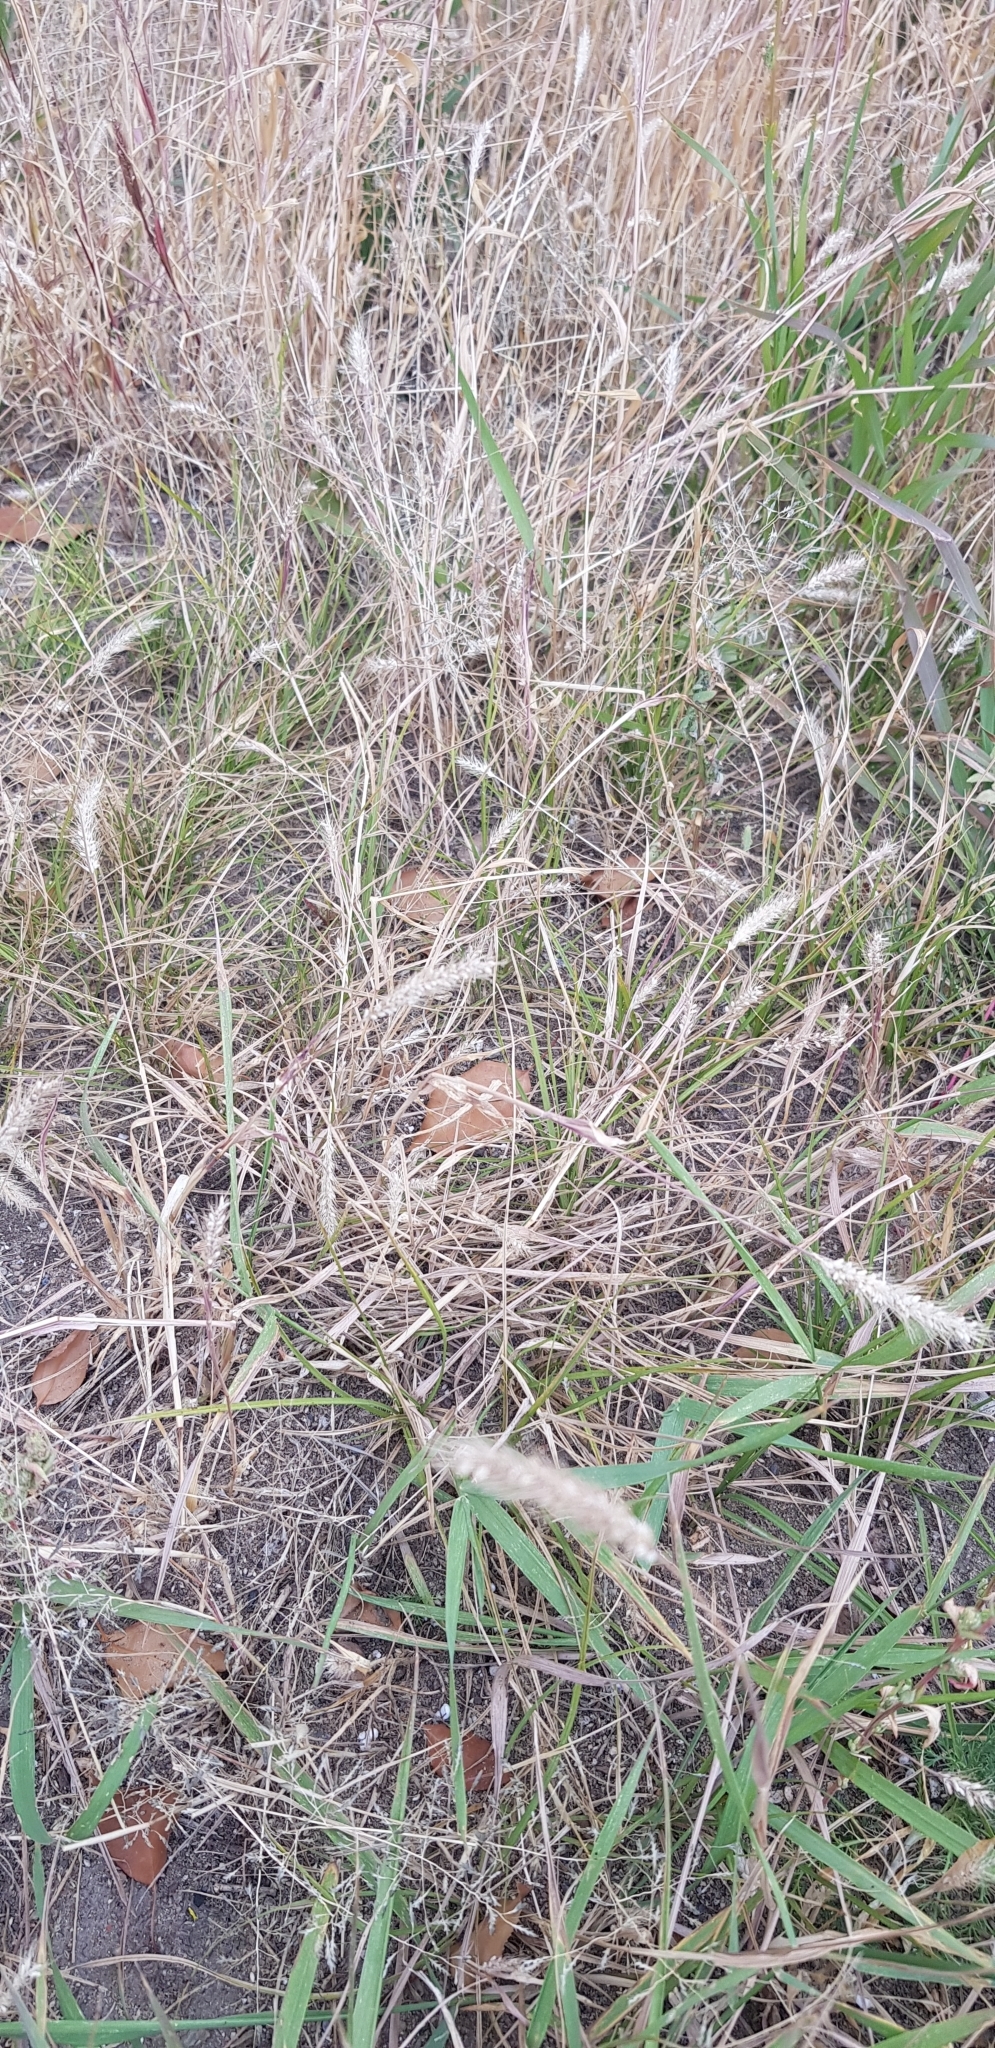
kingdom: Plantae
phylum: Tracheophyta
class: Liliopsida
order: Poales
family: Poaceae
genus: Elymus
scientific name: Elymus repens
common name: Quackgrass
